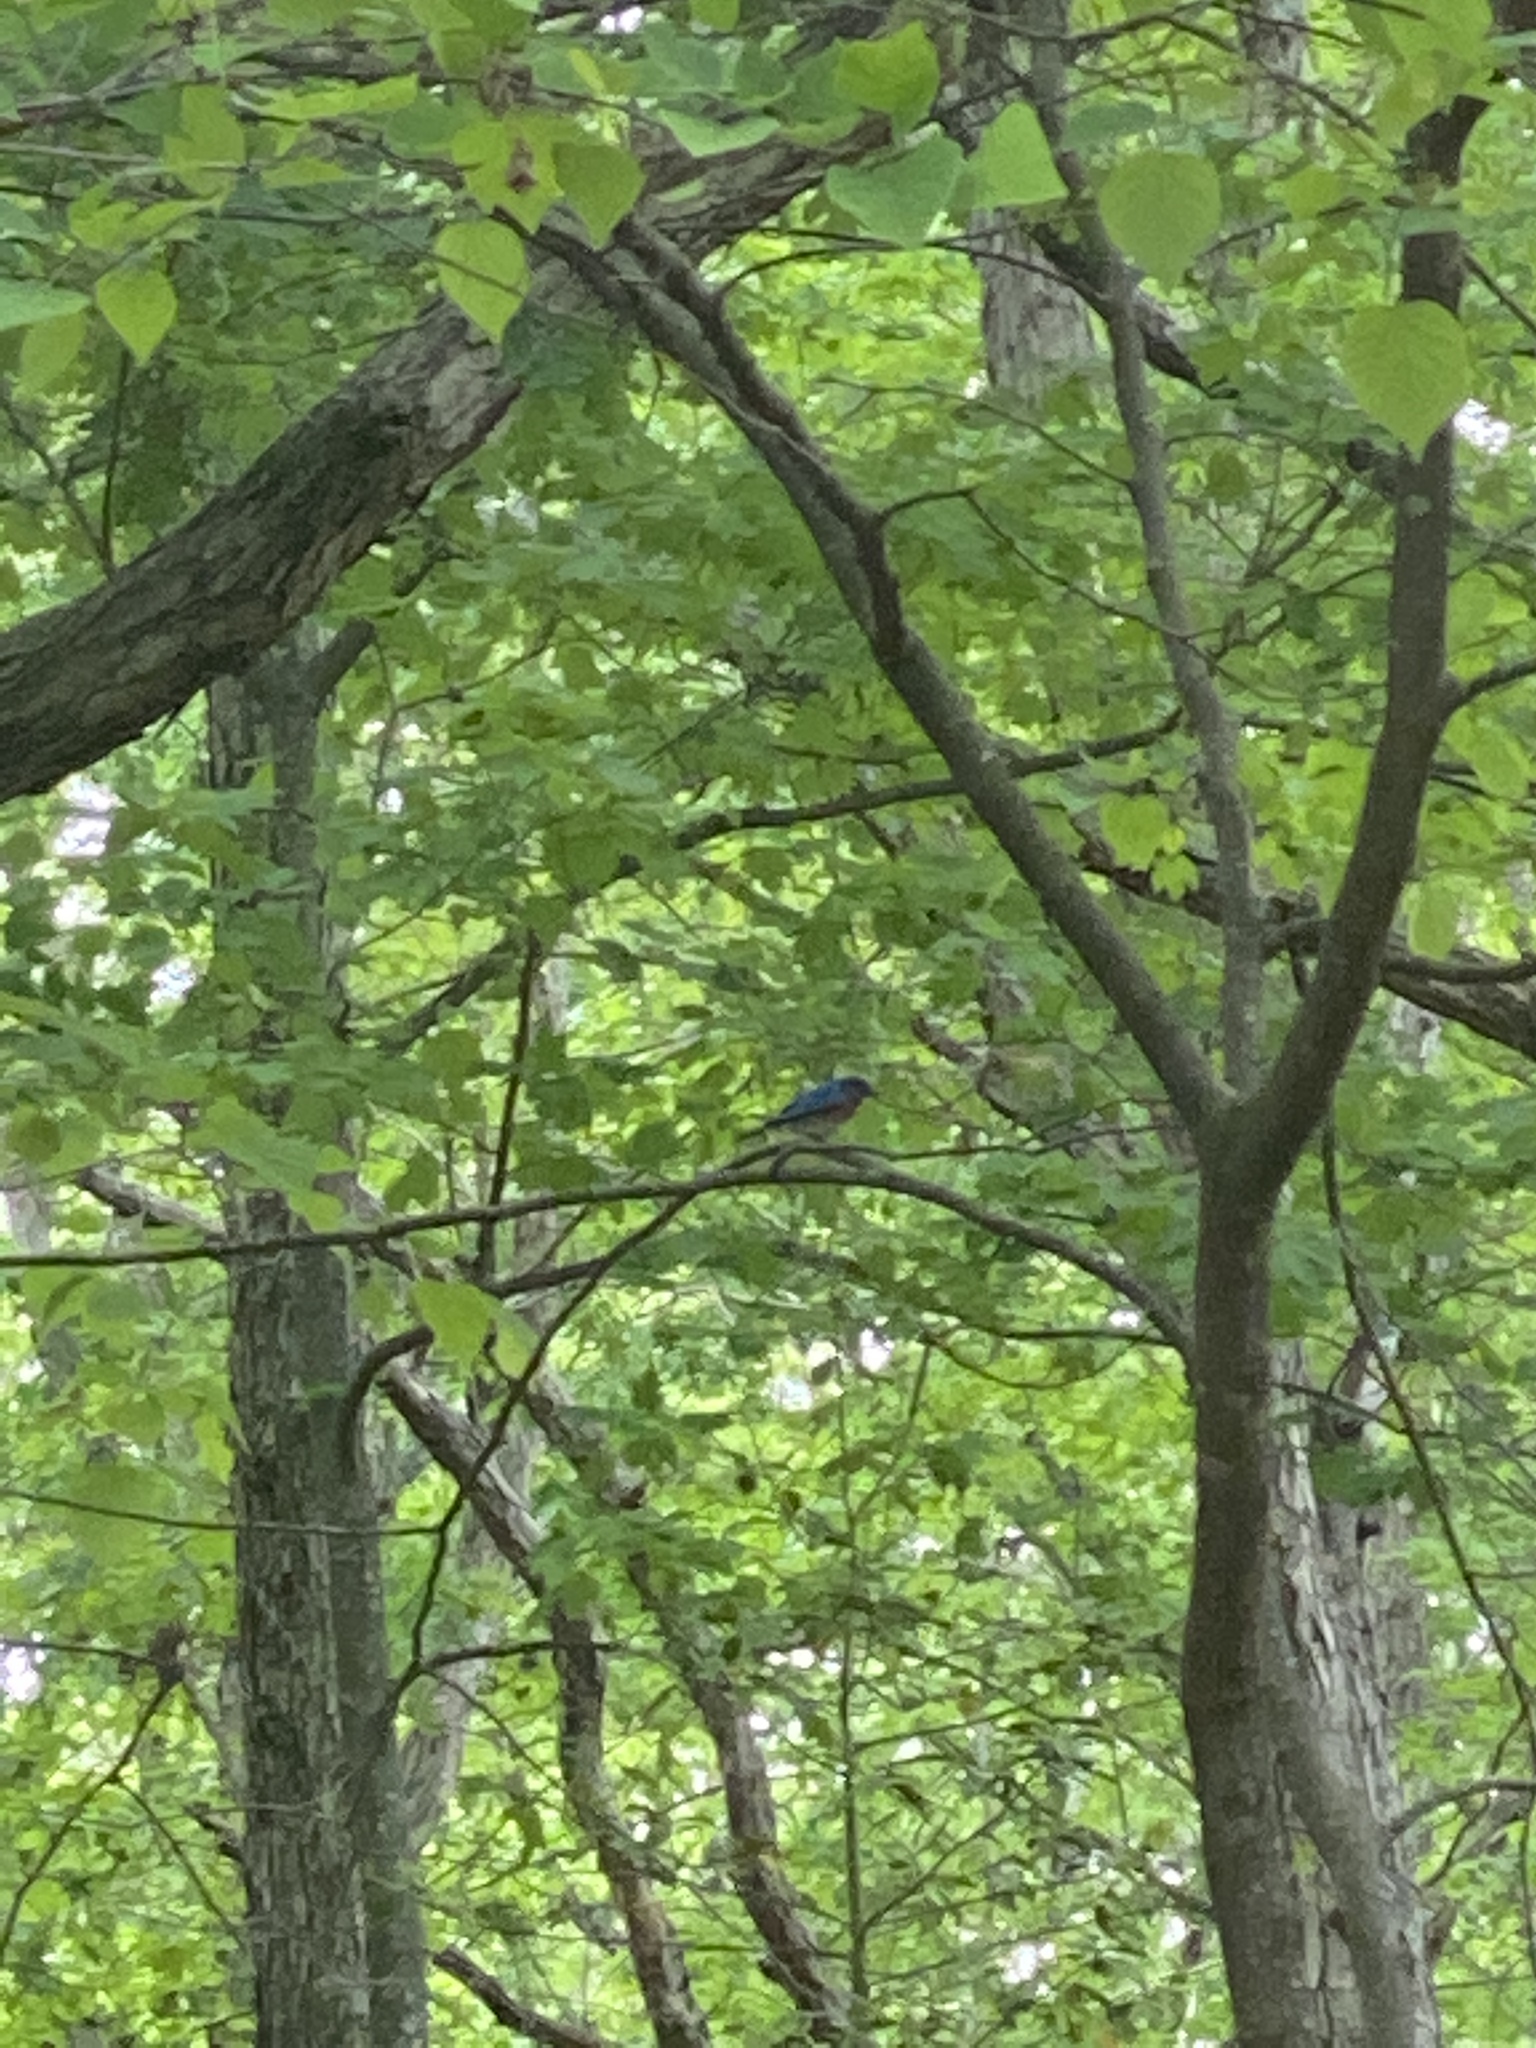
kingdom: Animalia
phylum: Chordata
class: Aves
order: Passeriformes
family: Turdidae
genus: Sialia
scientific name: Sialia sialis
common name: Eastern bluebird
